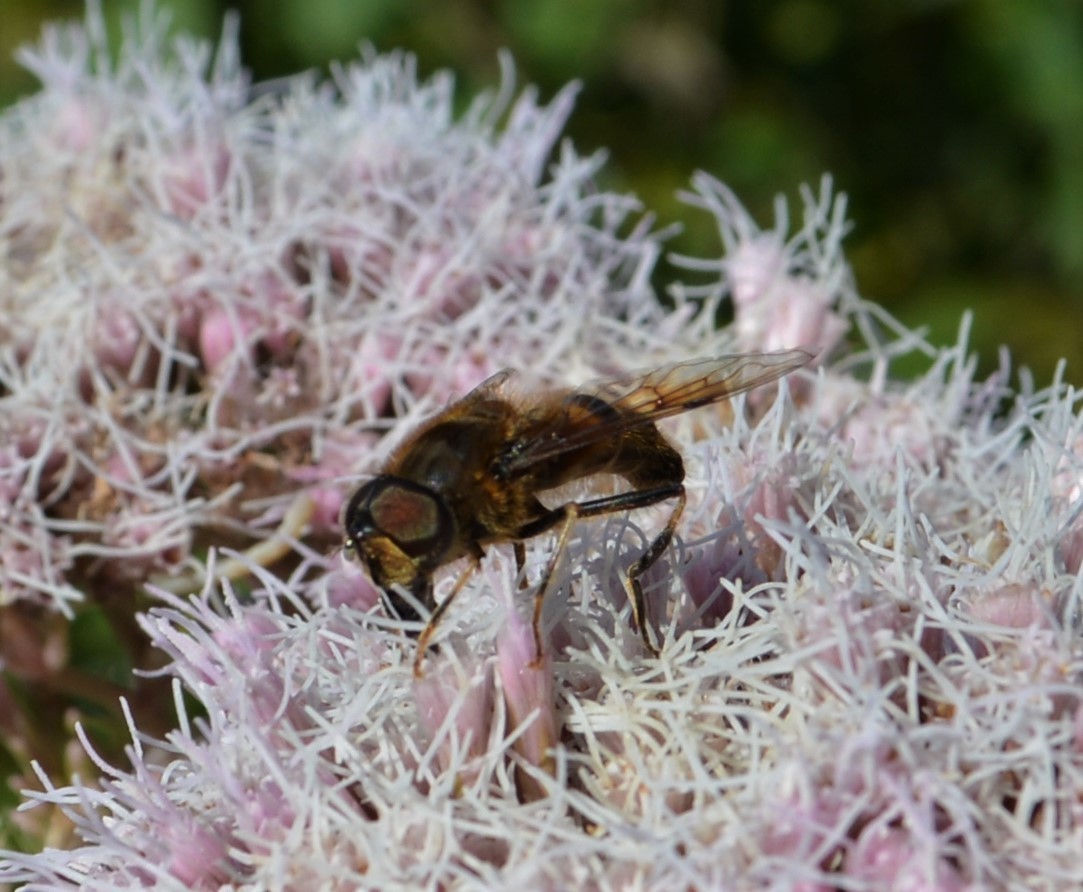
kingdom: Animalia
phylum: Arthropoda
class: Insecta
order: Diptera
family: Syrphidae
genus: Eristalis
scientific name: Eristalis pertinax
